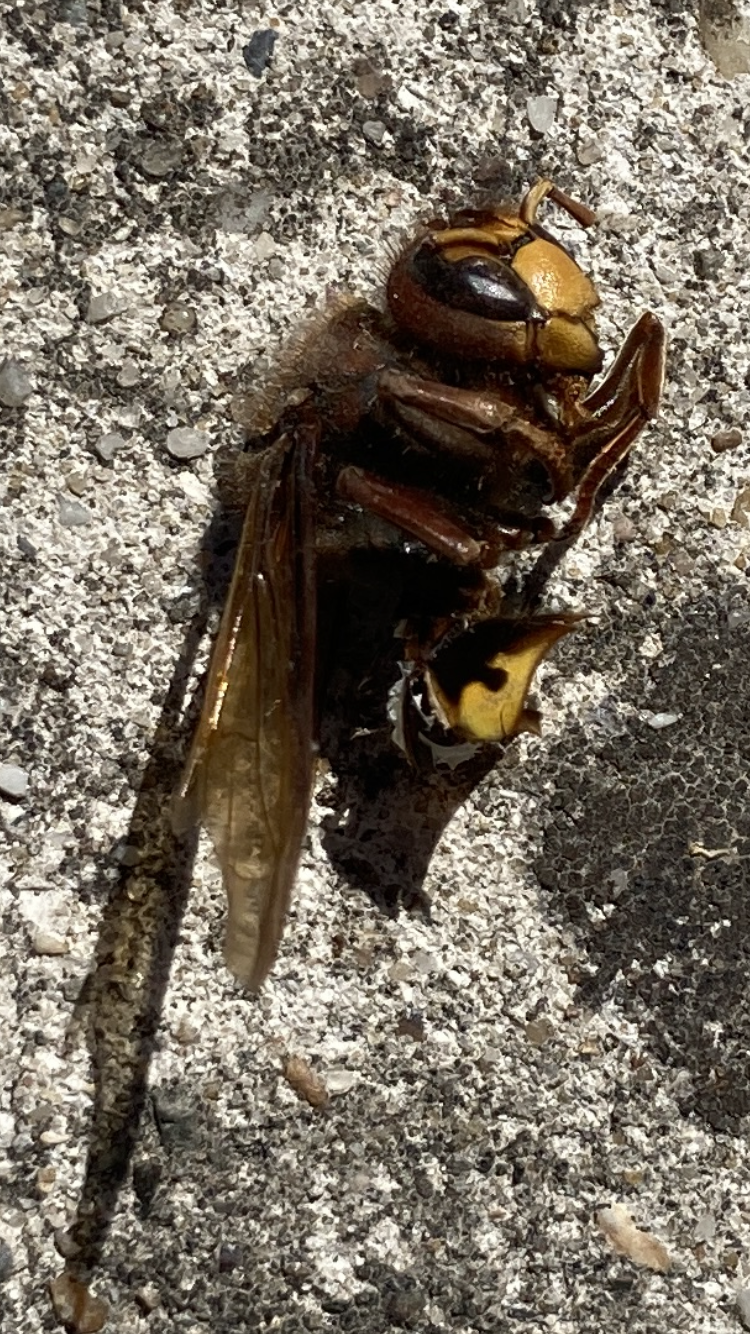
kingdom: Animalia
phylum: Arthropoda
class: Insecta
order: Hymenoptera
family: Vespidae
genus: Vespa
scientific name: Vespa crabro
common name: Hornet
